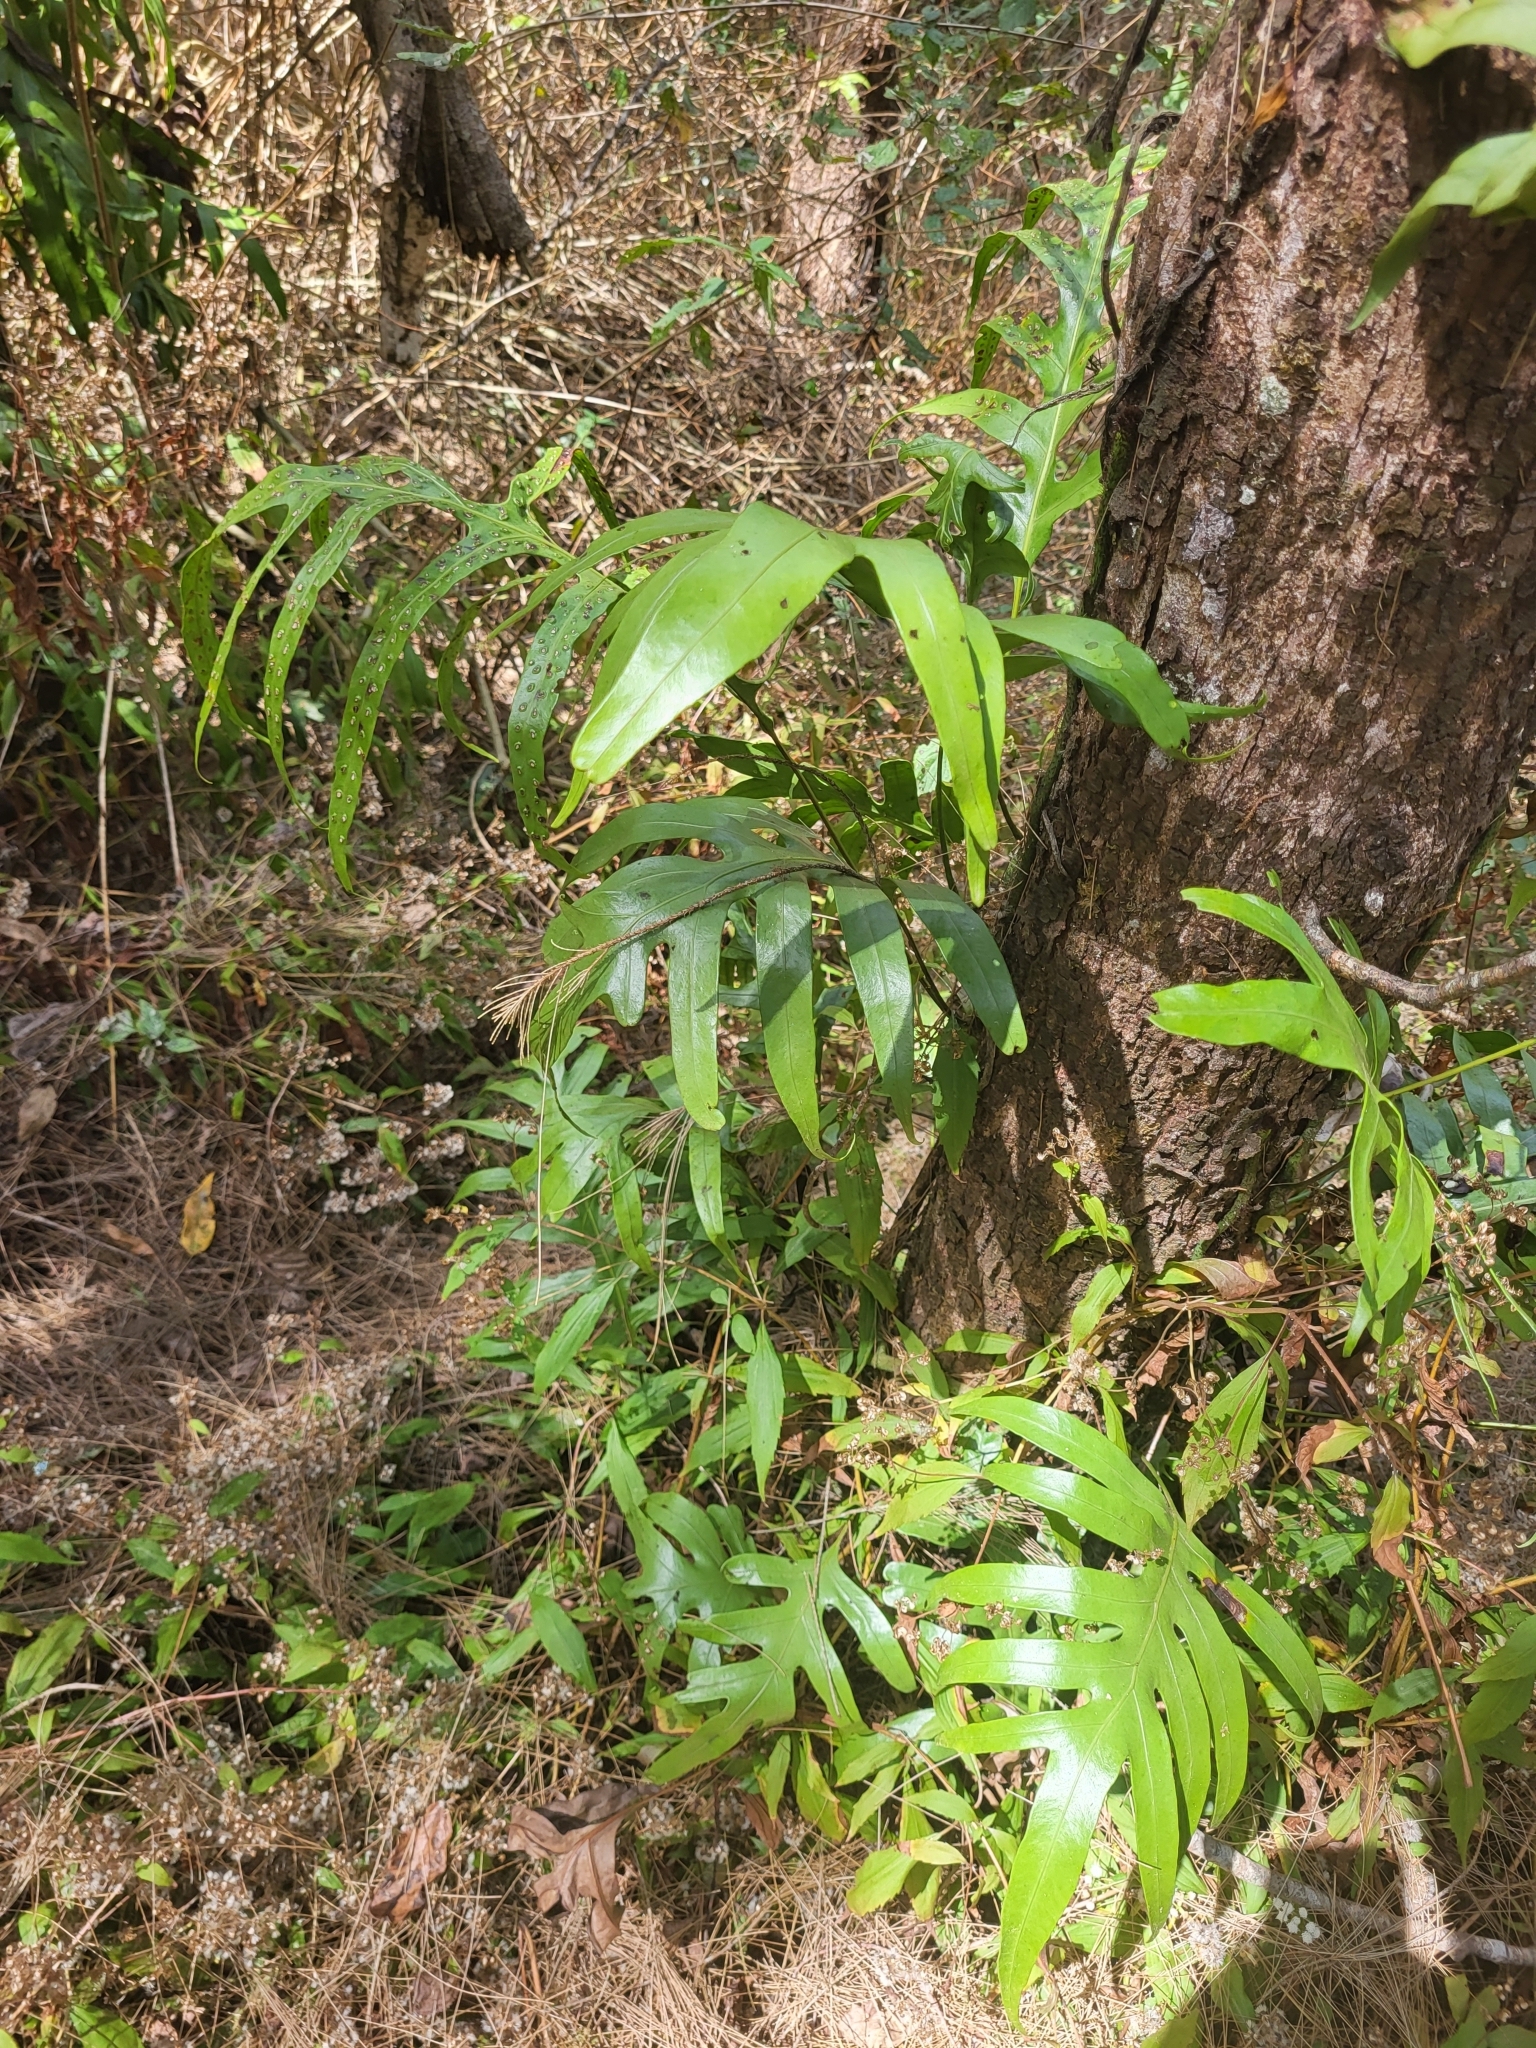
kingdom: Plantae
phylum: Tracheophyta
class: Polypodiopsida
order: Polypodiales
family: Polypodiaceae
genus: Microsorum
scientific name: Microsorum scolopendria
